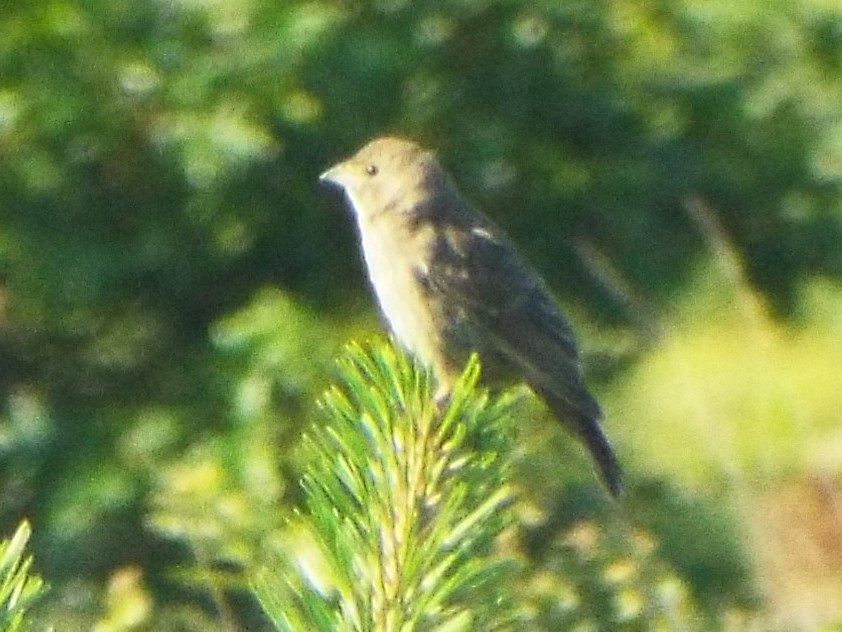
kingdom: Animalia
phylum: Chordata
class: Aves
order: Passeriformes
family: Cardinalidae
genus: Passerina
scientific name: Passerina cyanea
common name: Indigo bunting
